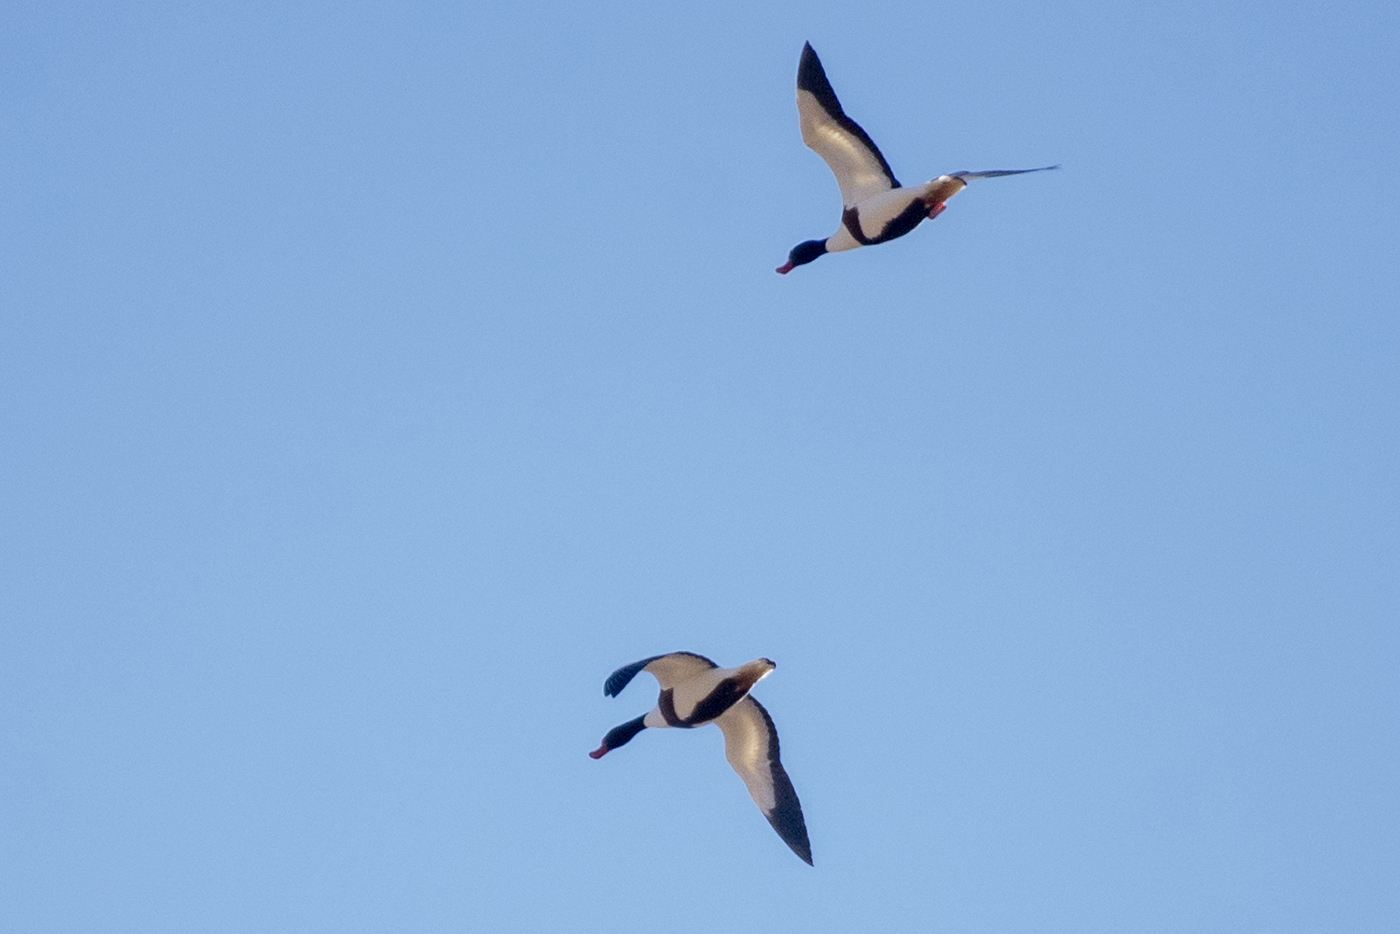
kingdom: Animalia
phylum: Chordata
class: Aves
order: Anseriformes
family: Anatidae
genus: Tadorna
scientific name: Tadorna tadorna
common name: Common shelduck
